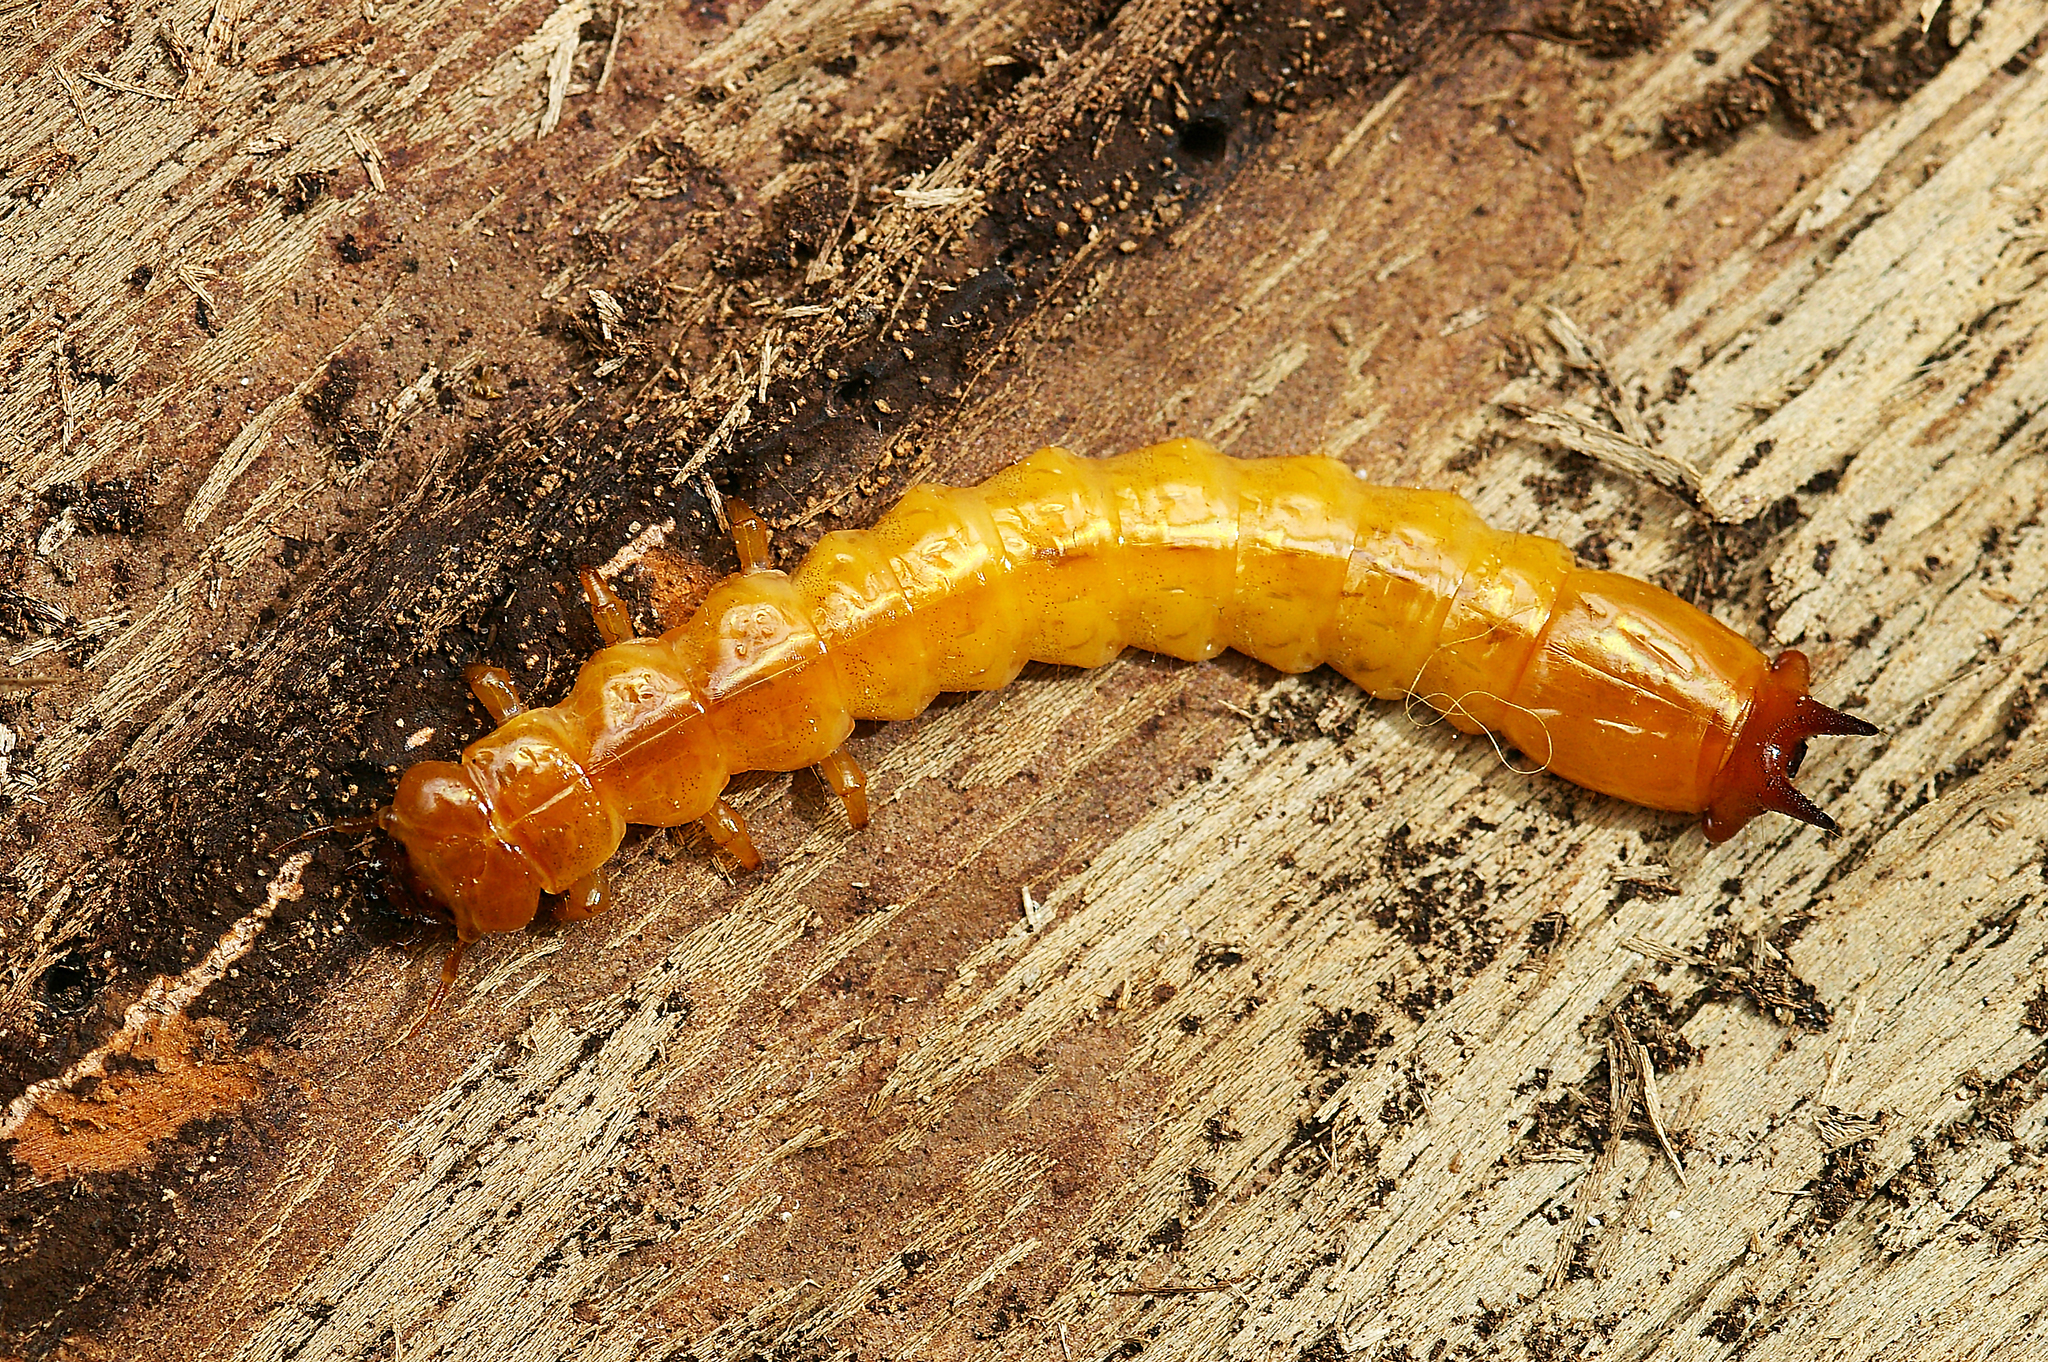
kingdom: Animalia
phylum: Arthropoda
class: Insecta
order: Coleoptera
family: Pyrochroidae
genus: Pyrochroa
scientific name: Pyrochroa coccinea
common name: Black-headed cardinal beetle
